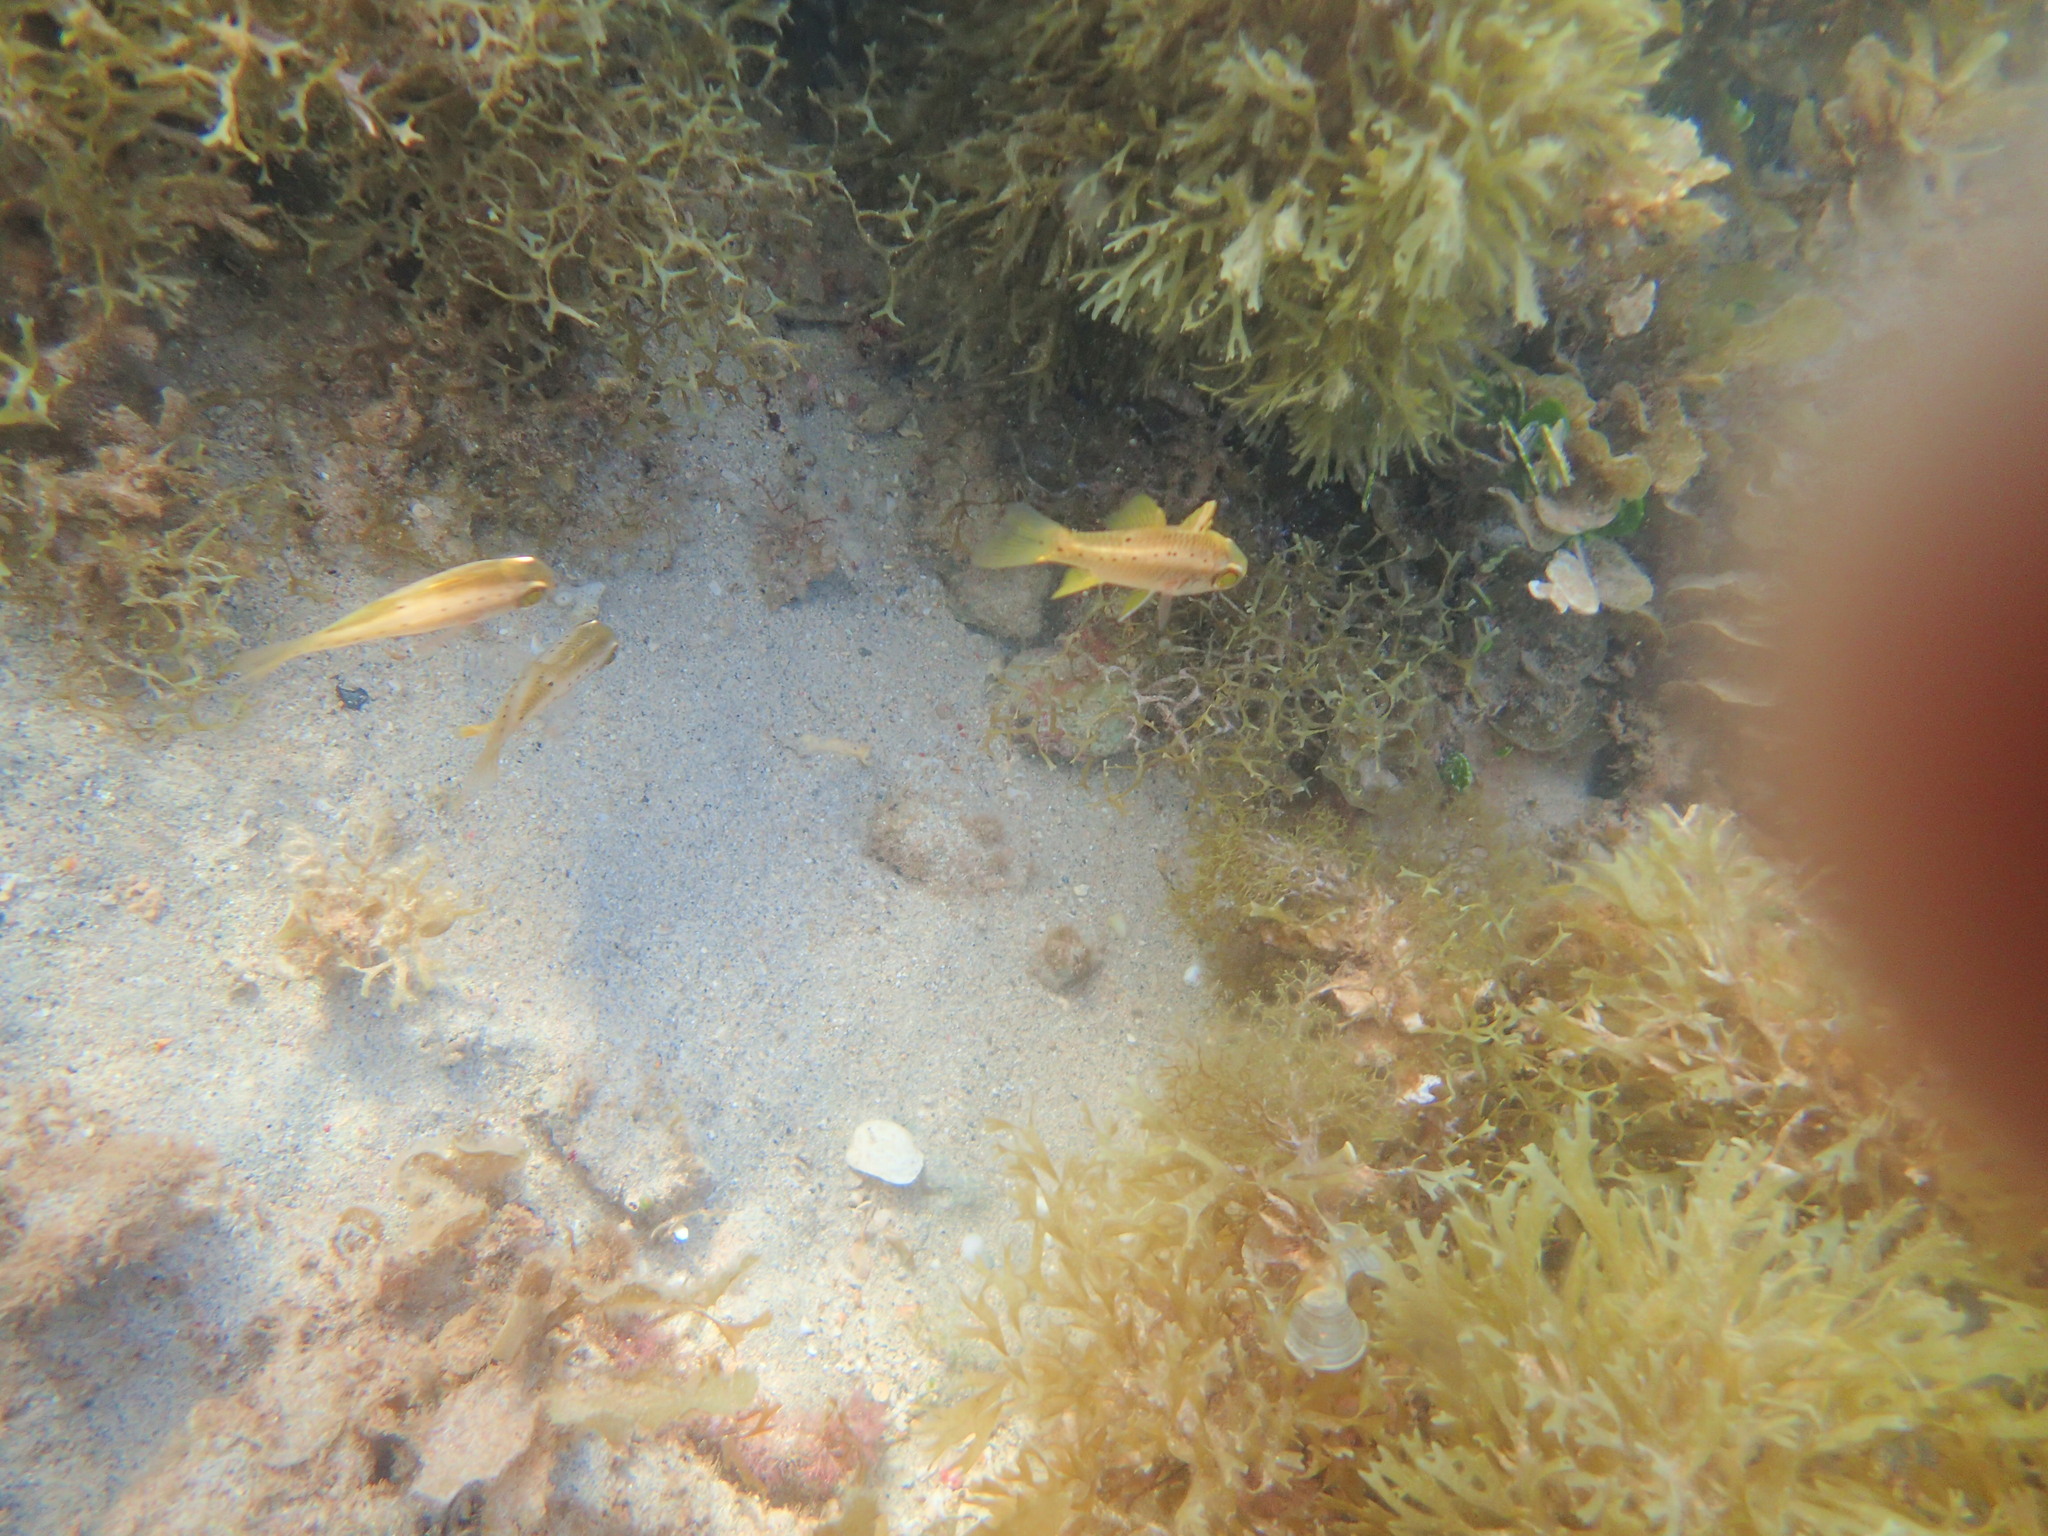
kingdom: Animalia
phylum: Chordata
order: Perciformes
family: Apogonidae
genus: Ostorhinchus
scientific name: Ostorhinchus rueppellii
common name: Gobbleguts
